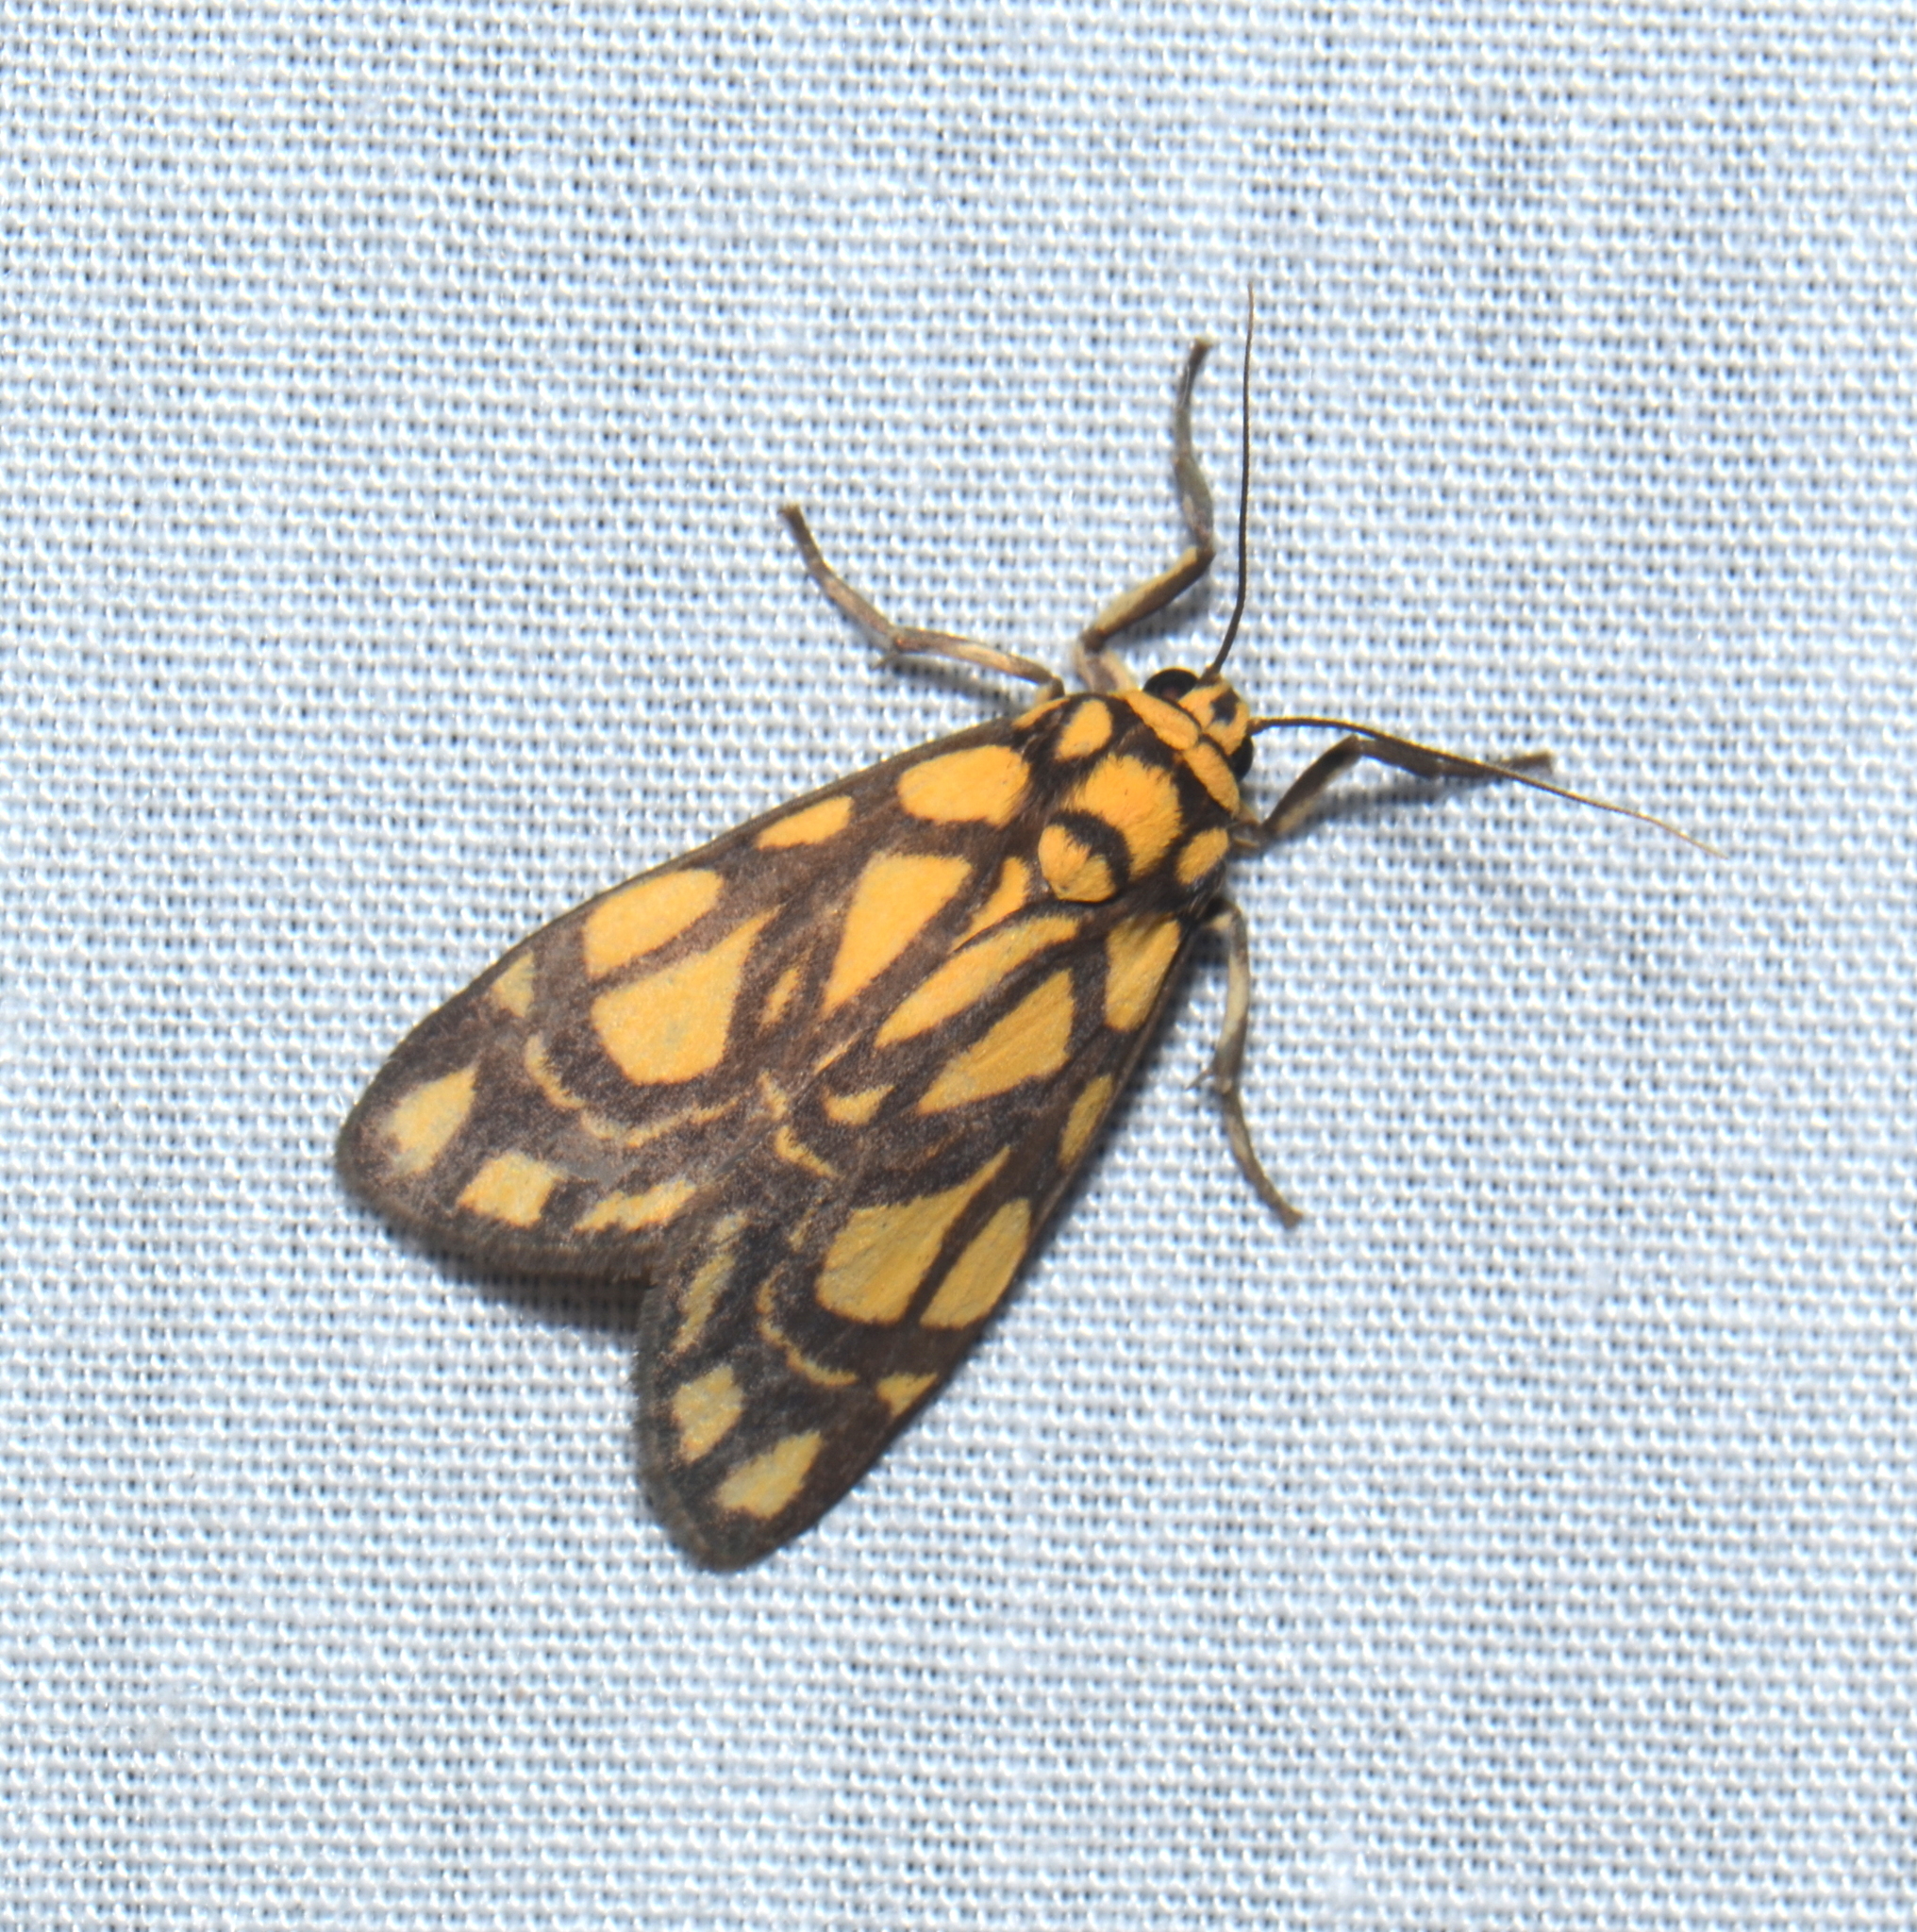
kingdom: Animalia
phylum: Arthropoda
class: Insecta
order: Lepidoptera
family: Erebidae
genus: Cyme
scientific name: Cyme euprepioides
